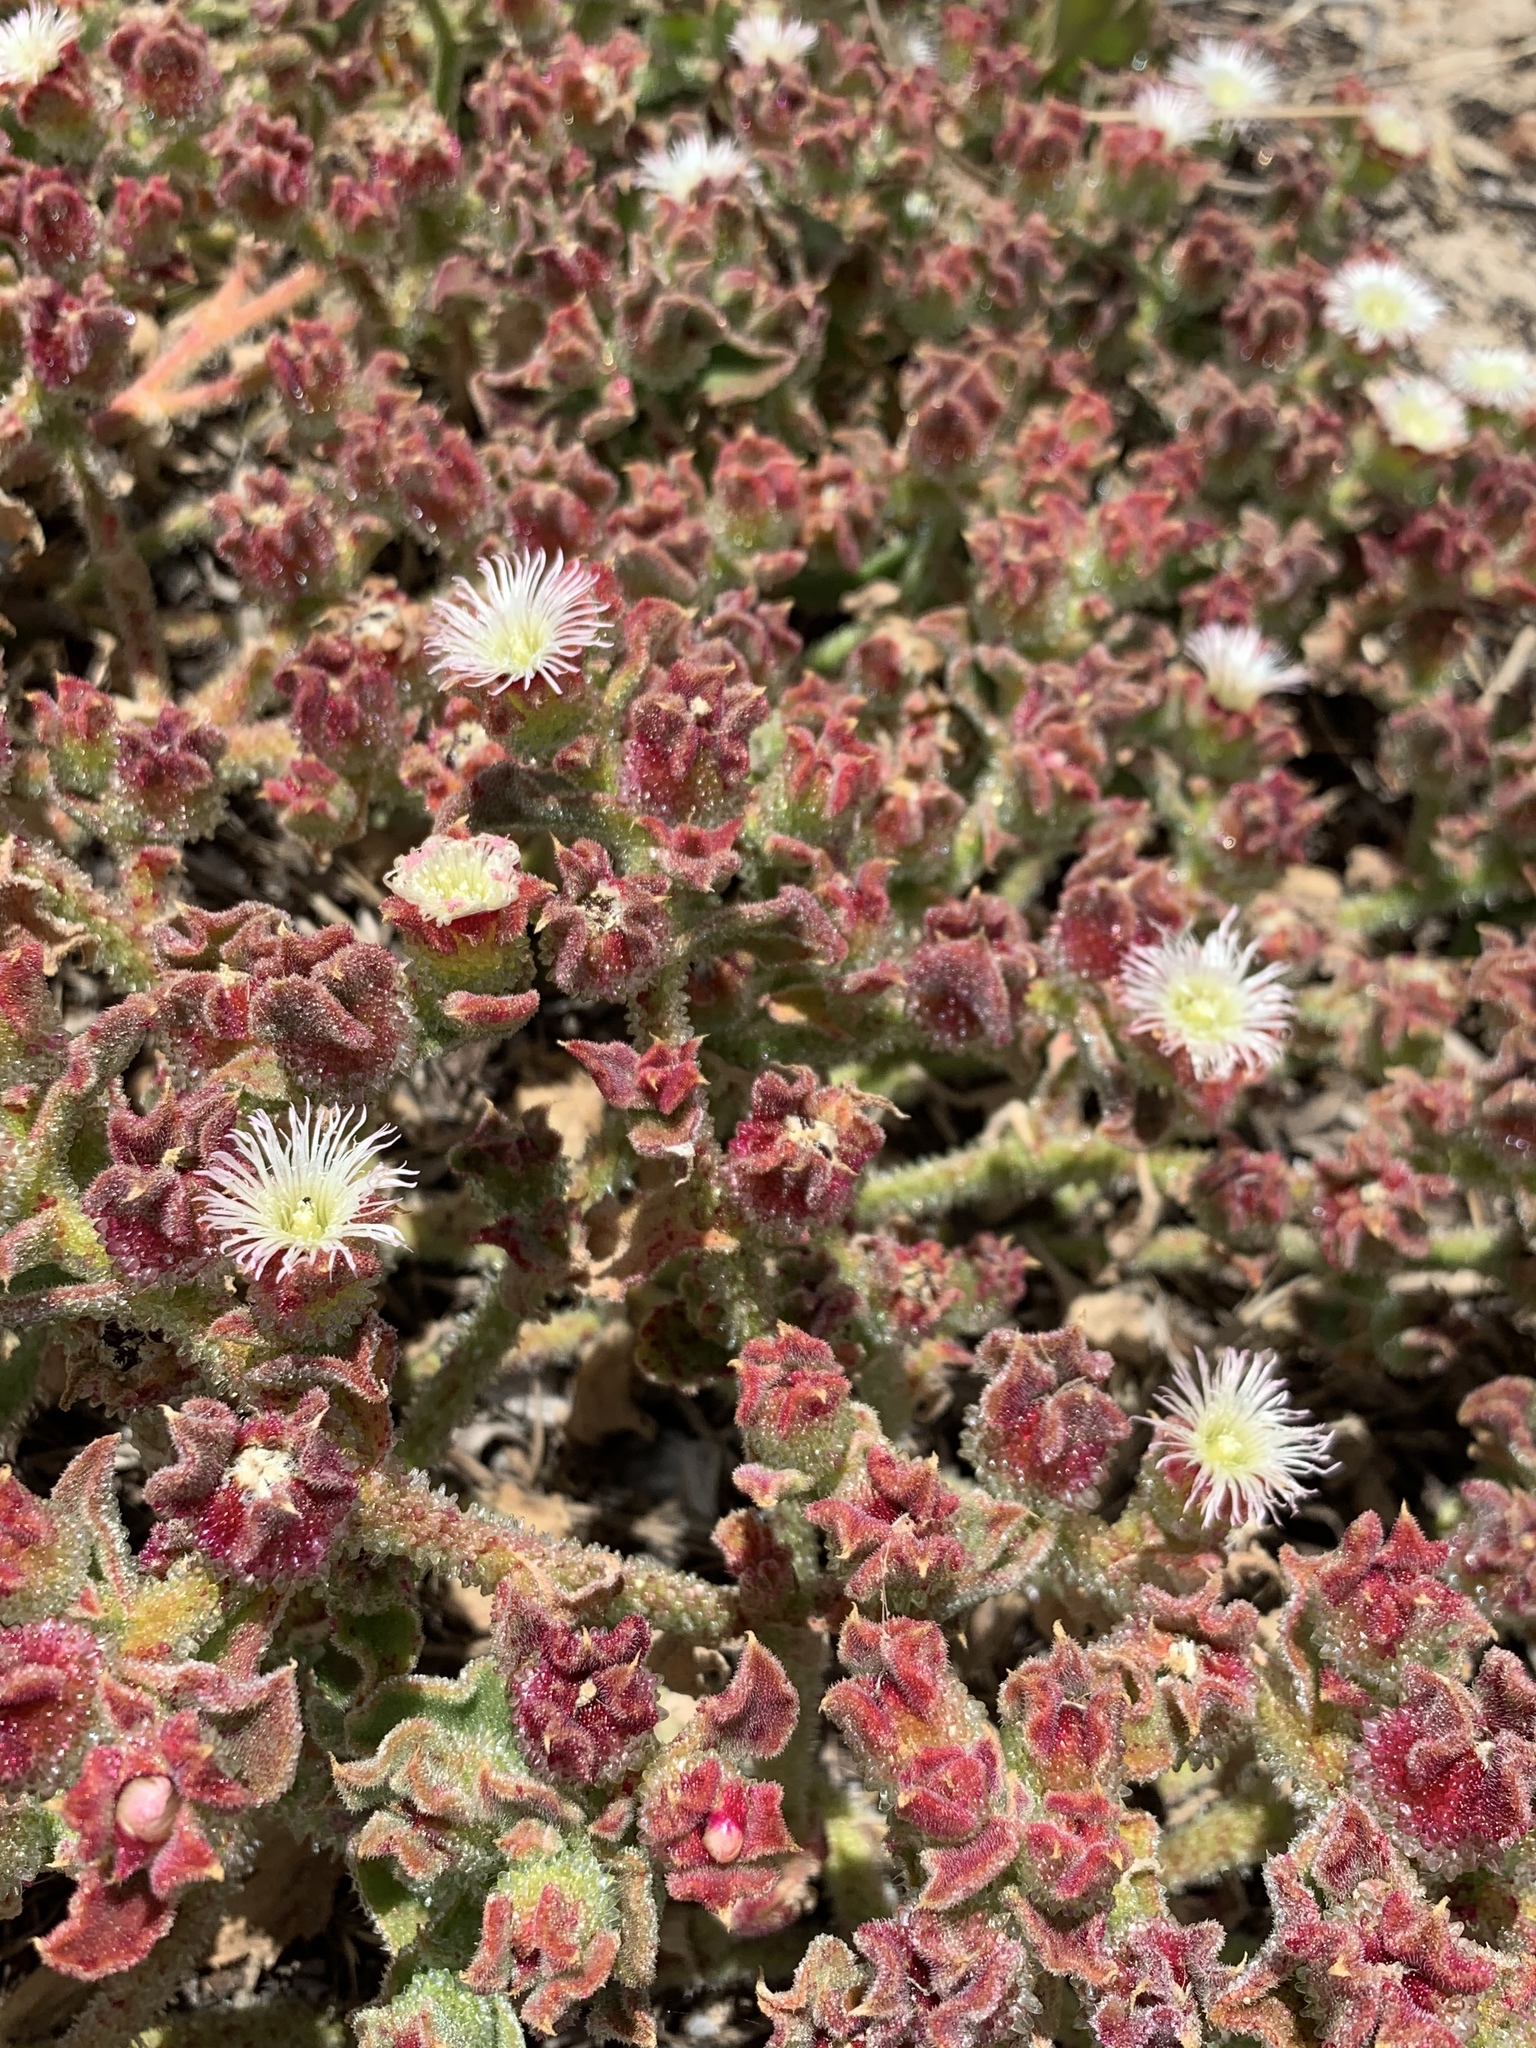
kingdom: Plantae
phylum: Tracheophyta
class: Magnoliopsida
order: Caryophyllales
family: Aizoaceae
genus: Mesembryanthemum
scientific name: Mesembryanthemum crystallinum
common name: Common iceplant
